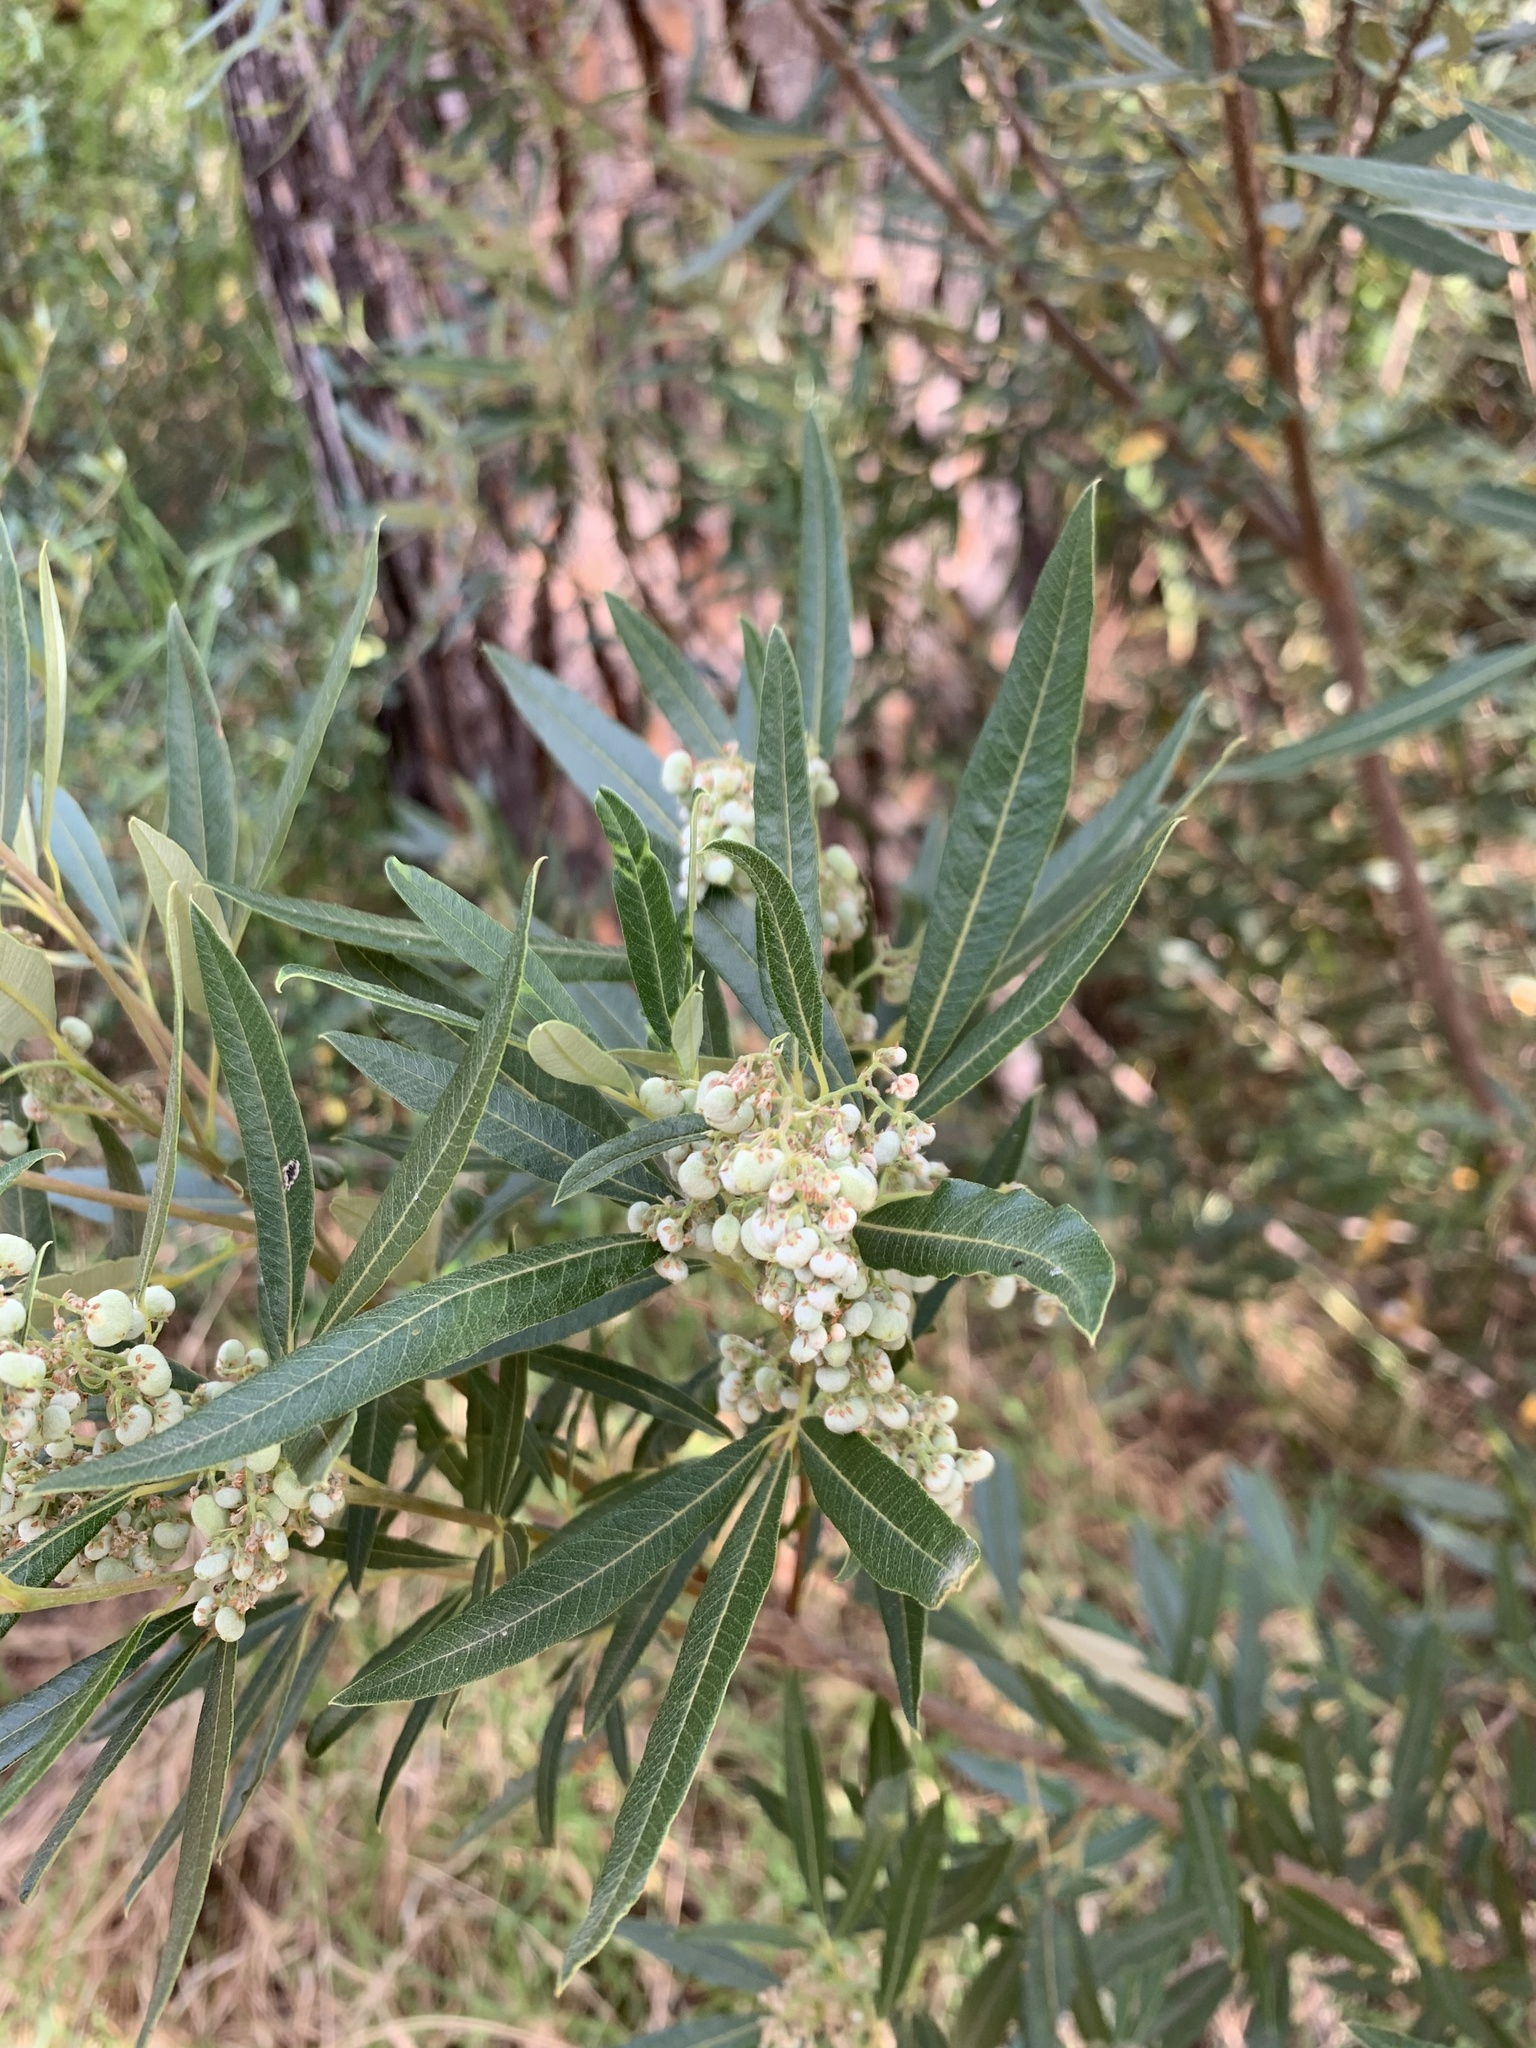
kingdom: Plantae
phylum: Tracheophyta
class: Magnoliopsida
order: Sapindales
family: Anacardiaceae
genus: Searsia
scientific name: Searsia angustifolia
